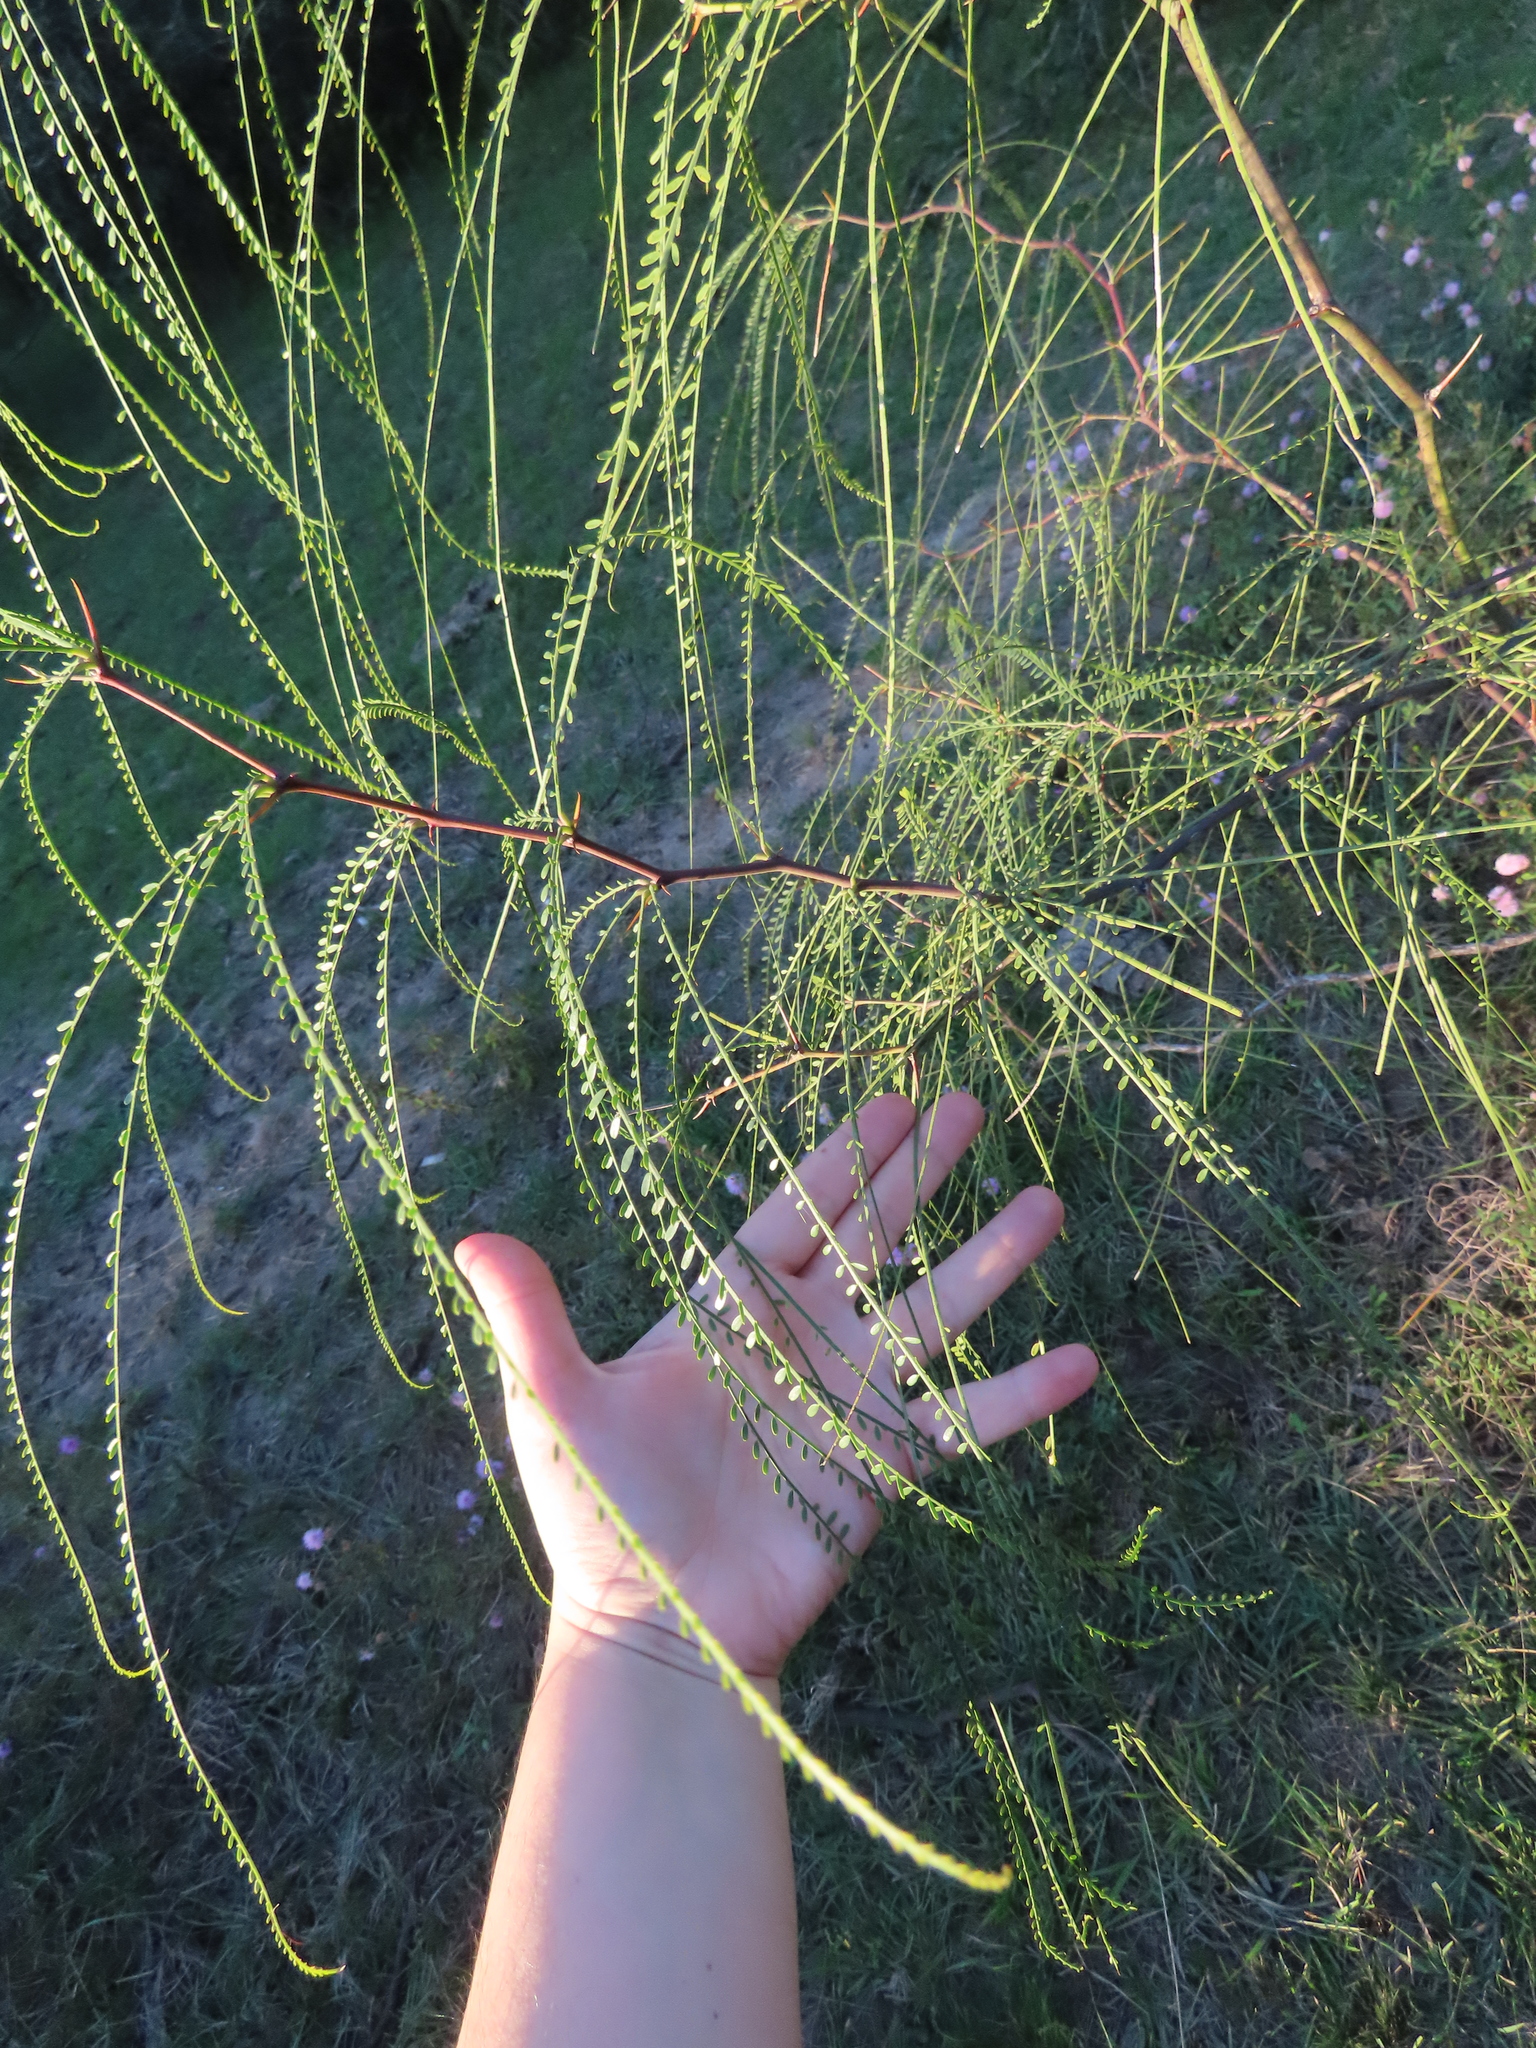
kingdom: Plantae
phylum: Tracheophyta
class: Magnoliopsida
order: Fabales
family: Fabaceae
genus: Parkinsonia
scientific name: Parkinsonia aculeata
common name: Jerusalem thorn
